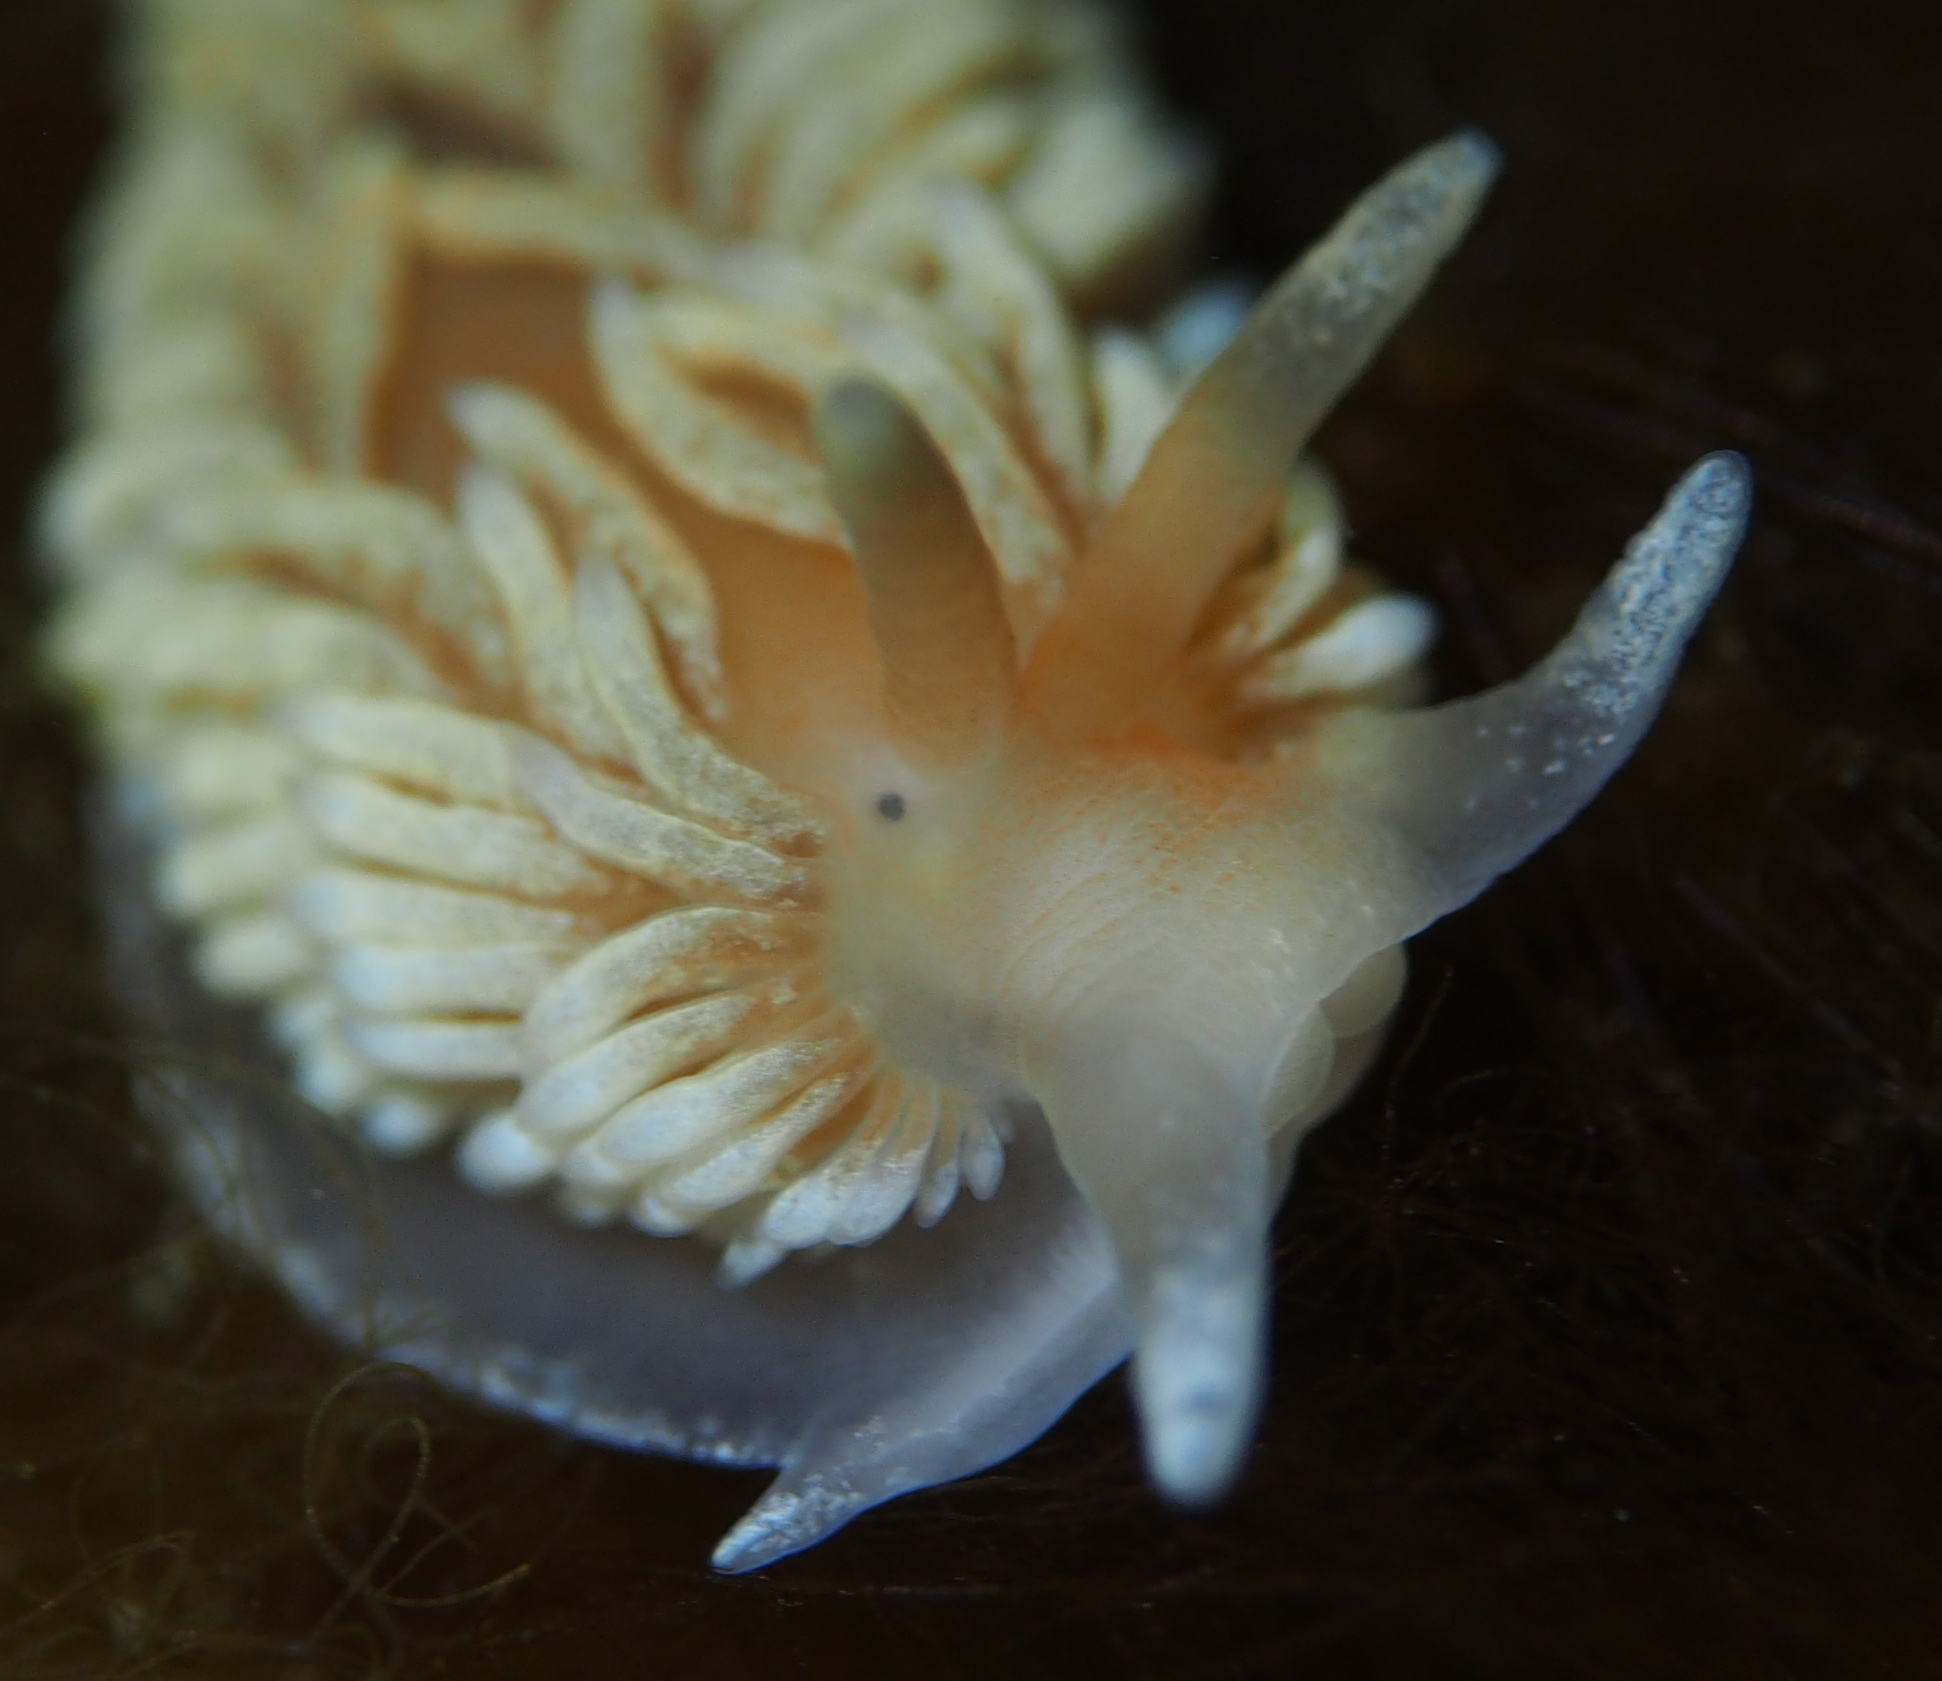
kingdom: Animalia
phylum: Mollusca
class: Gastropoda
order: Nudibranchia
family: Aeolidiidae
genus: Aeolidiella
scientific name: Aeolidiella glauca
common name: Orange-brown aeolid
